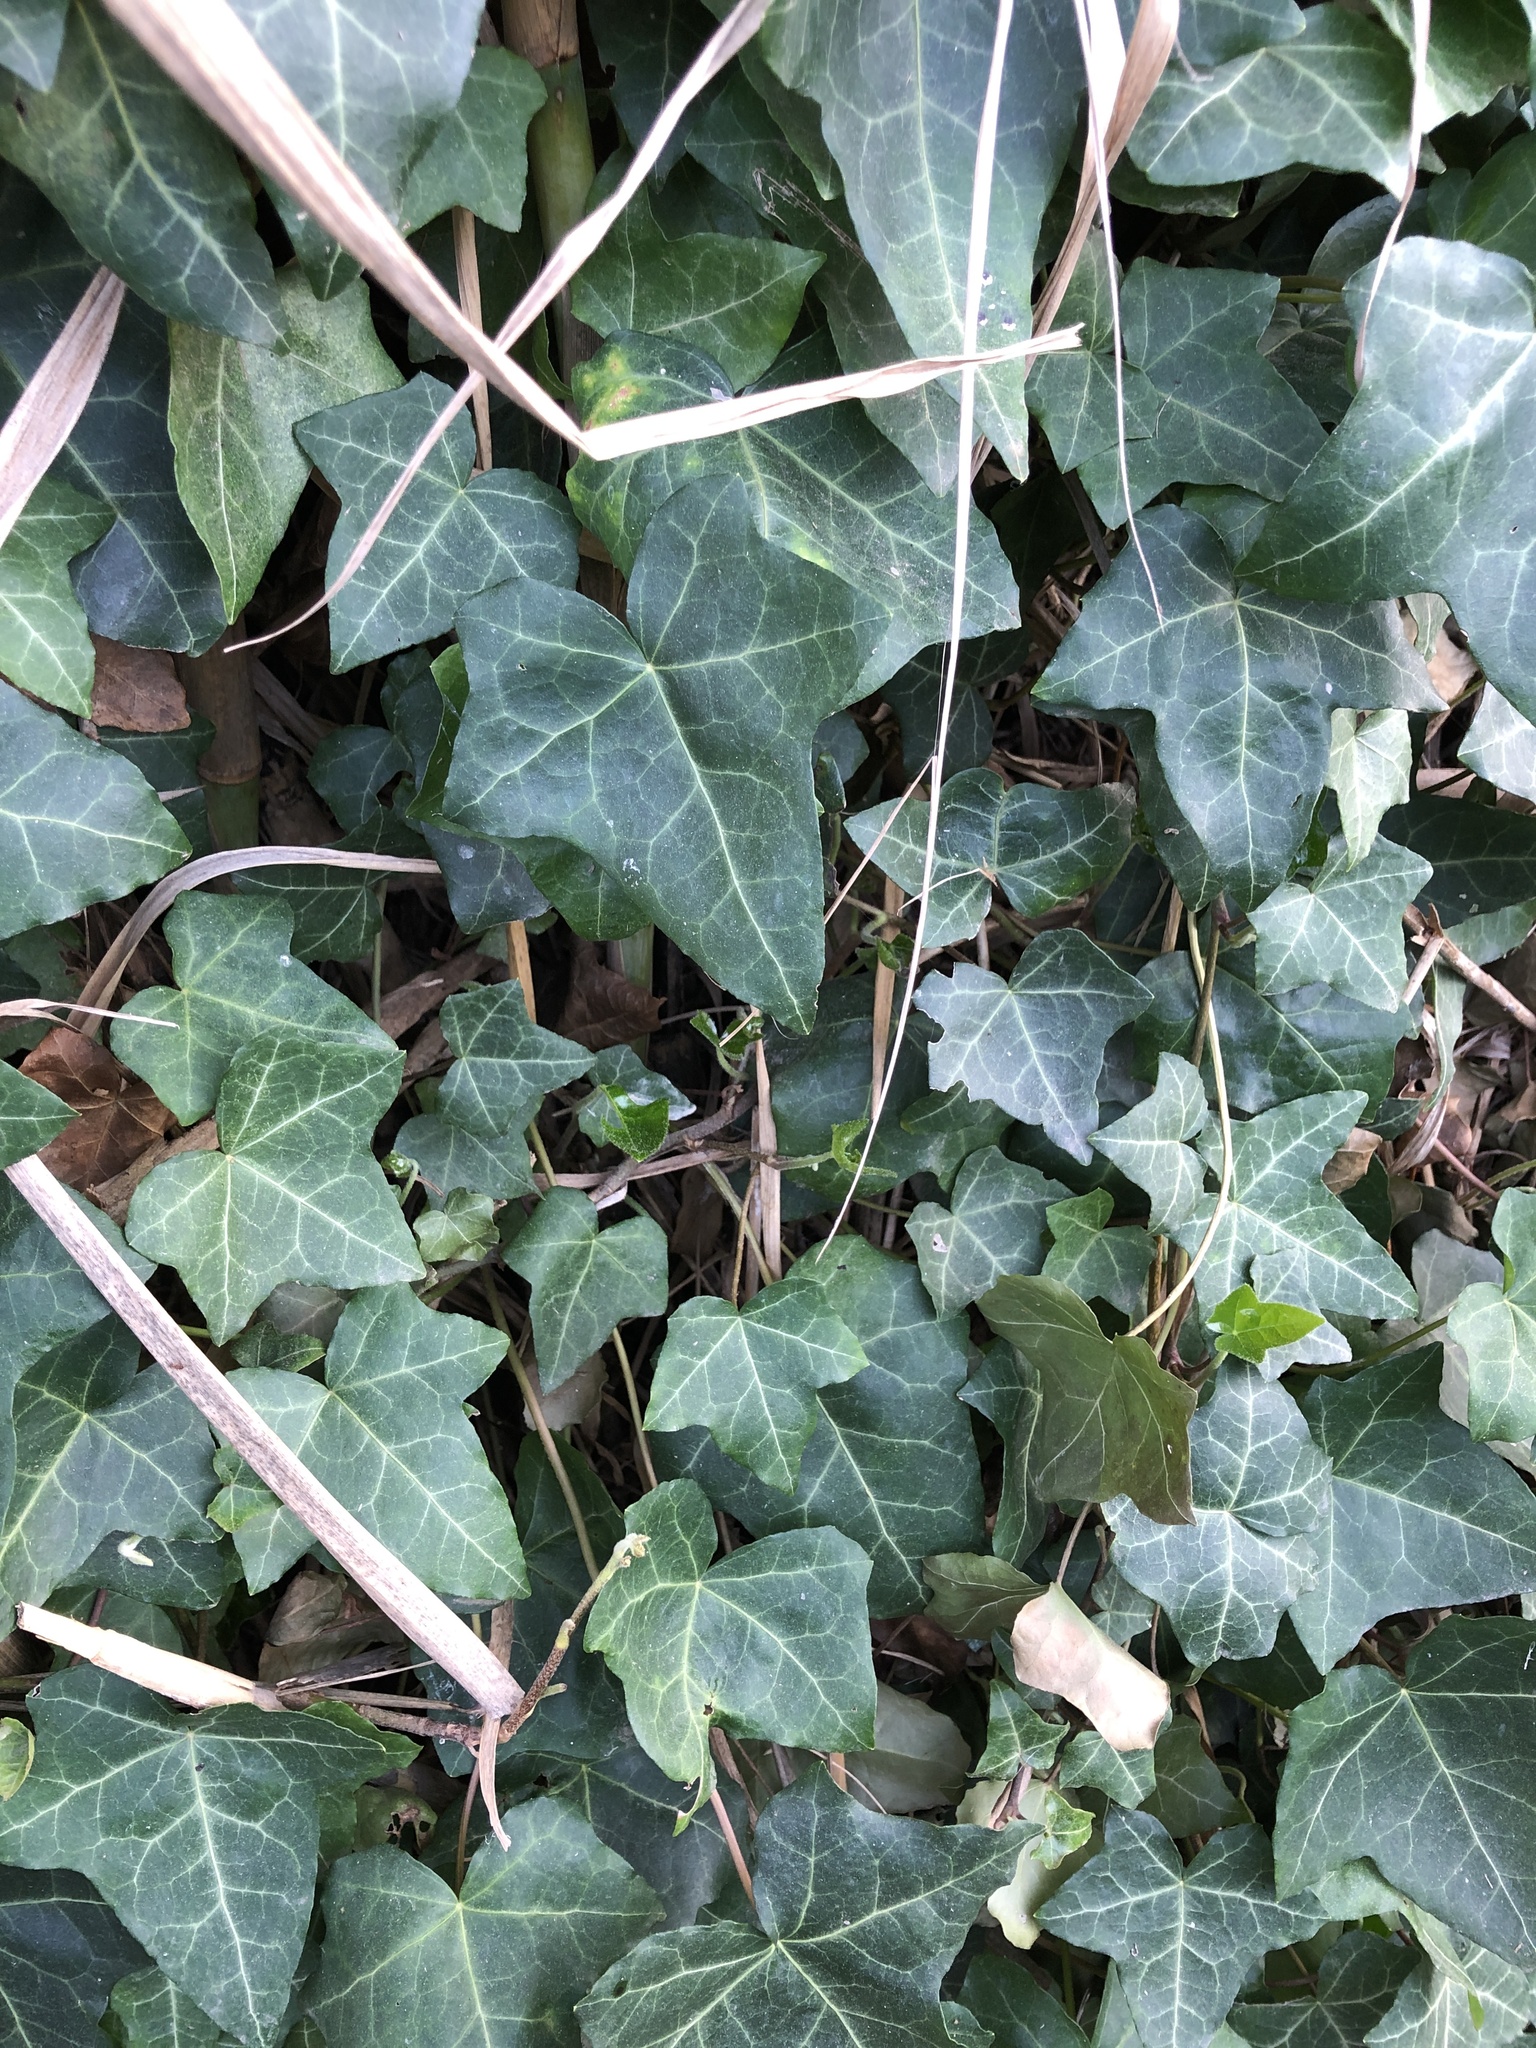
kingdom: Plantae
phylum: Tracheophyta
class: Magnoliopsida
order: Apiales
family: Araliaceae
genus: Hedera
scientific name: Hedera helix
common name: Ivy
